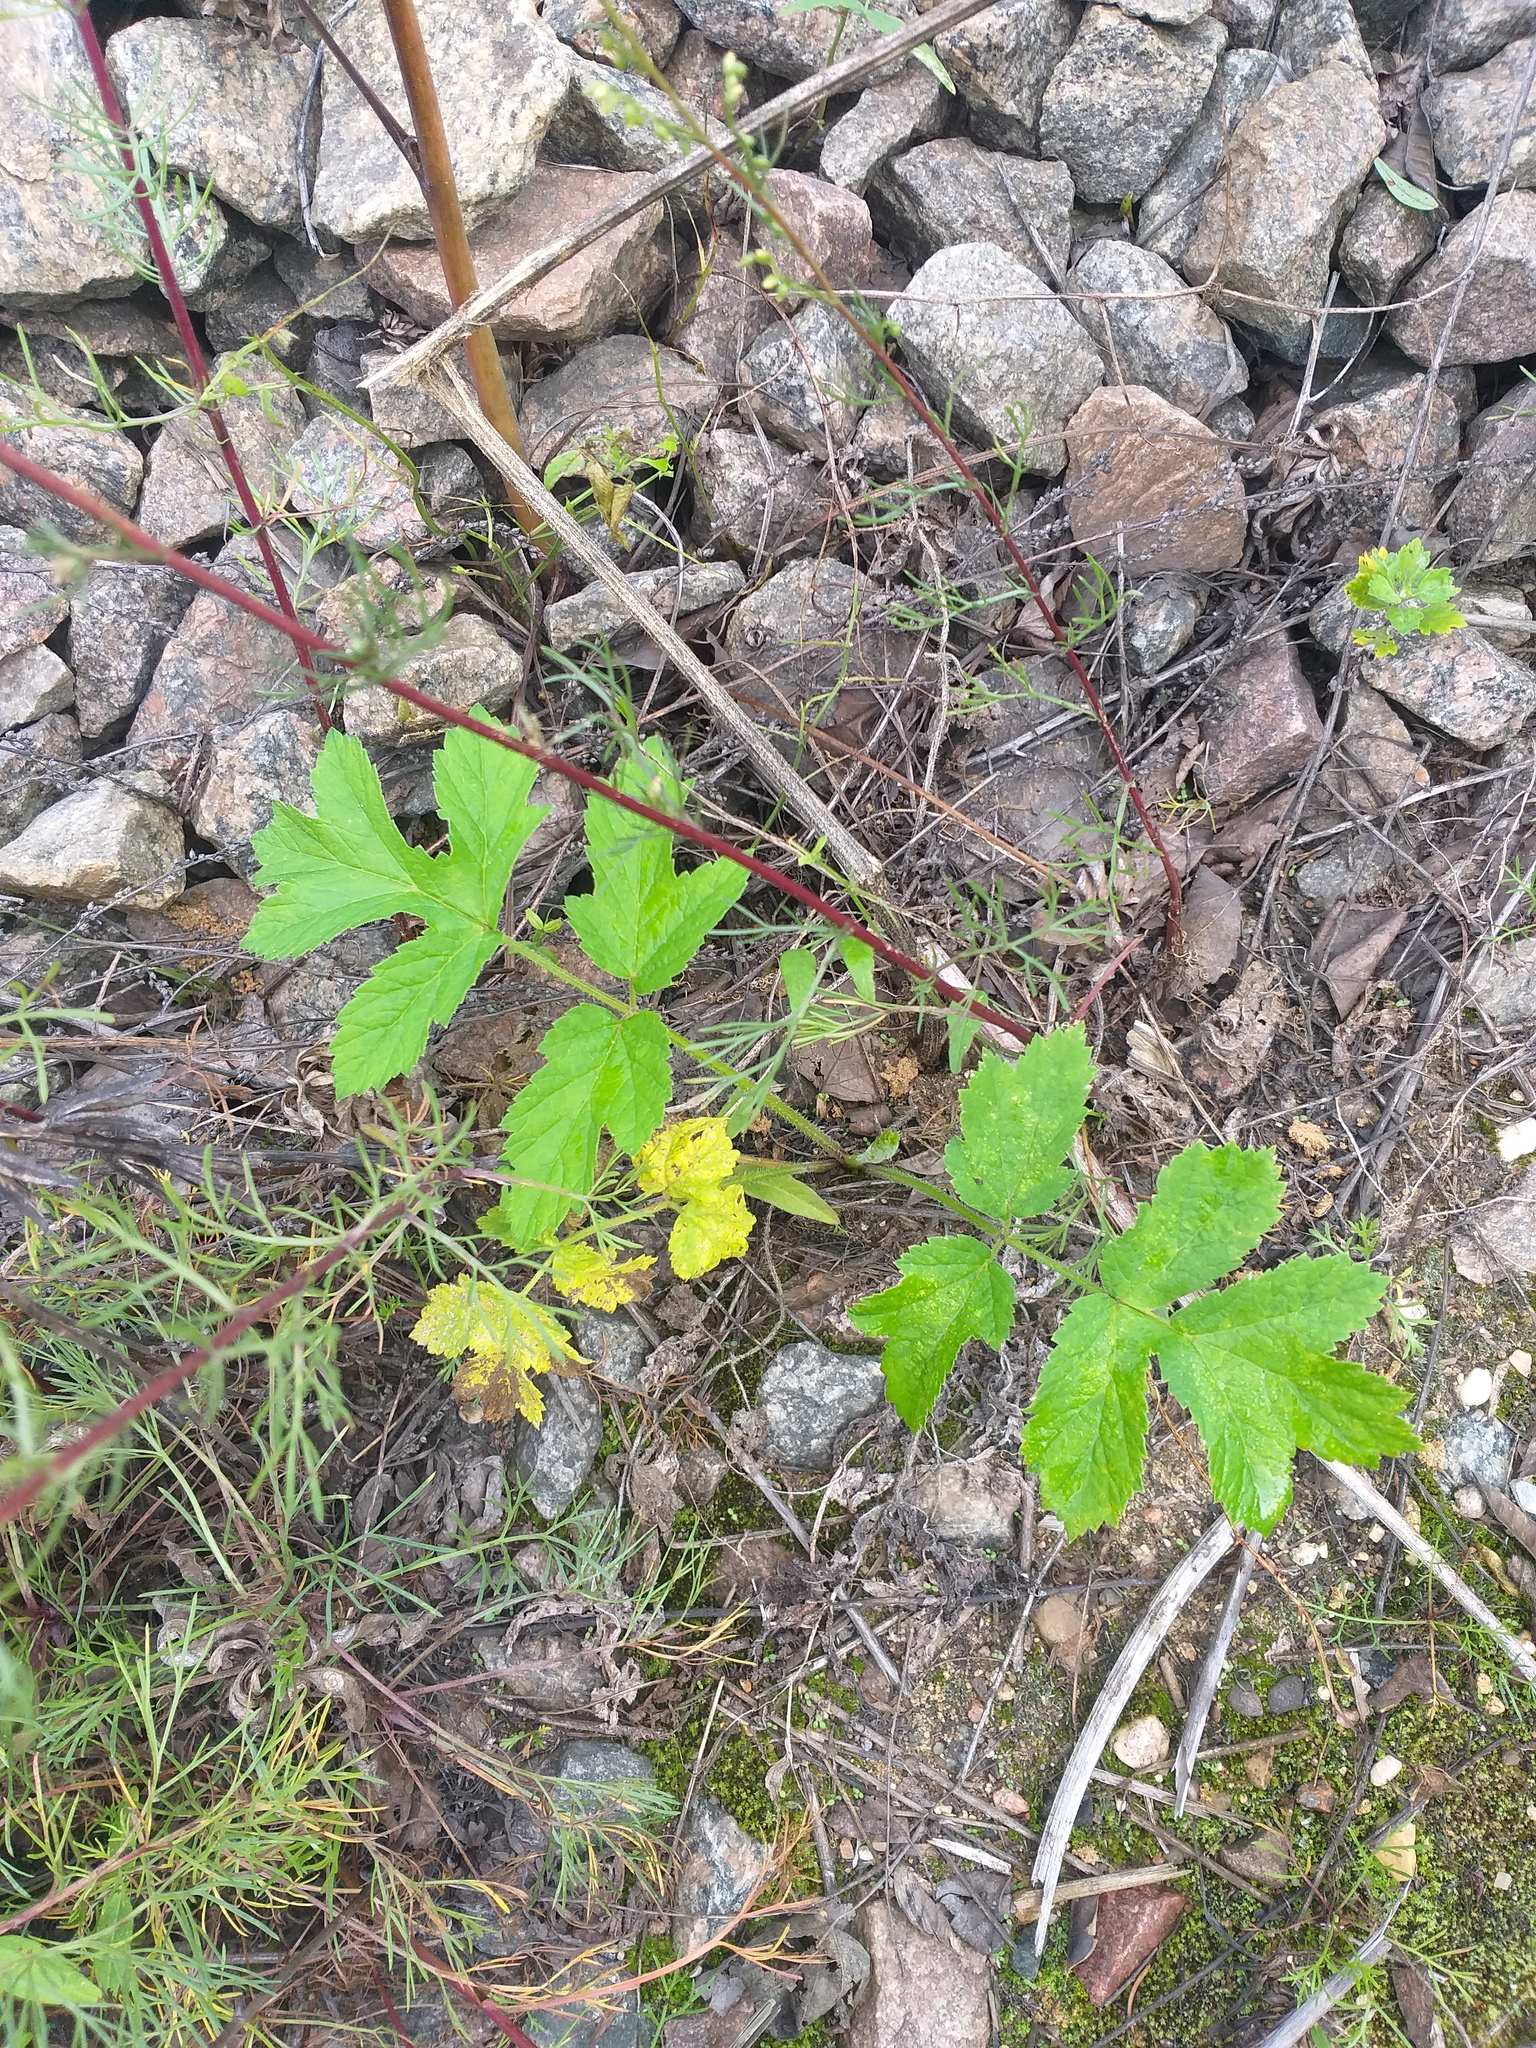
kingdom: Plantae
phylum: Tracheophyta
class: Magnoliopsida
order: Apiales
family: Apiaceae
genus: Heracleum
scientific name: Heracleum sphondylium
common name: Hogweed
